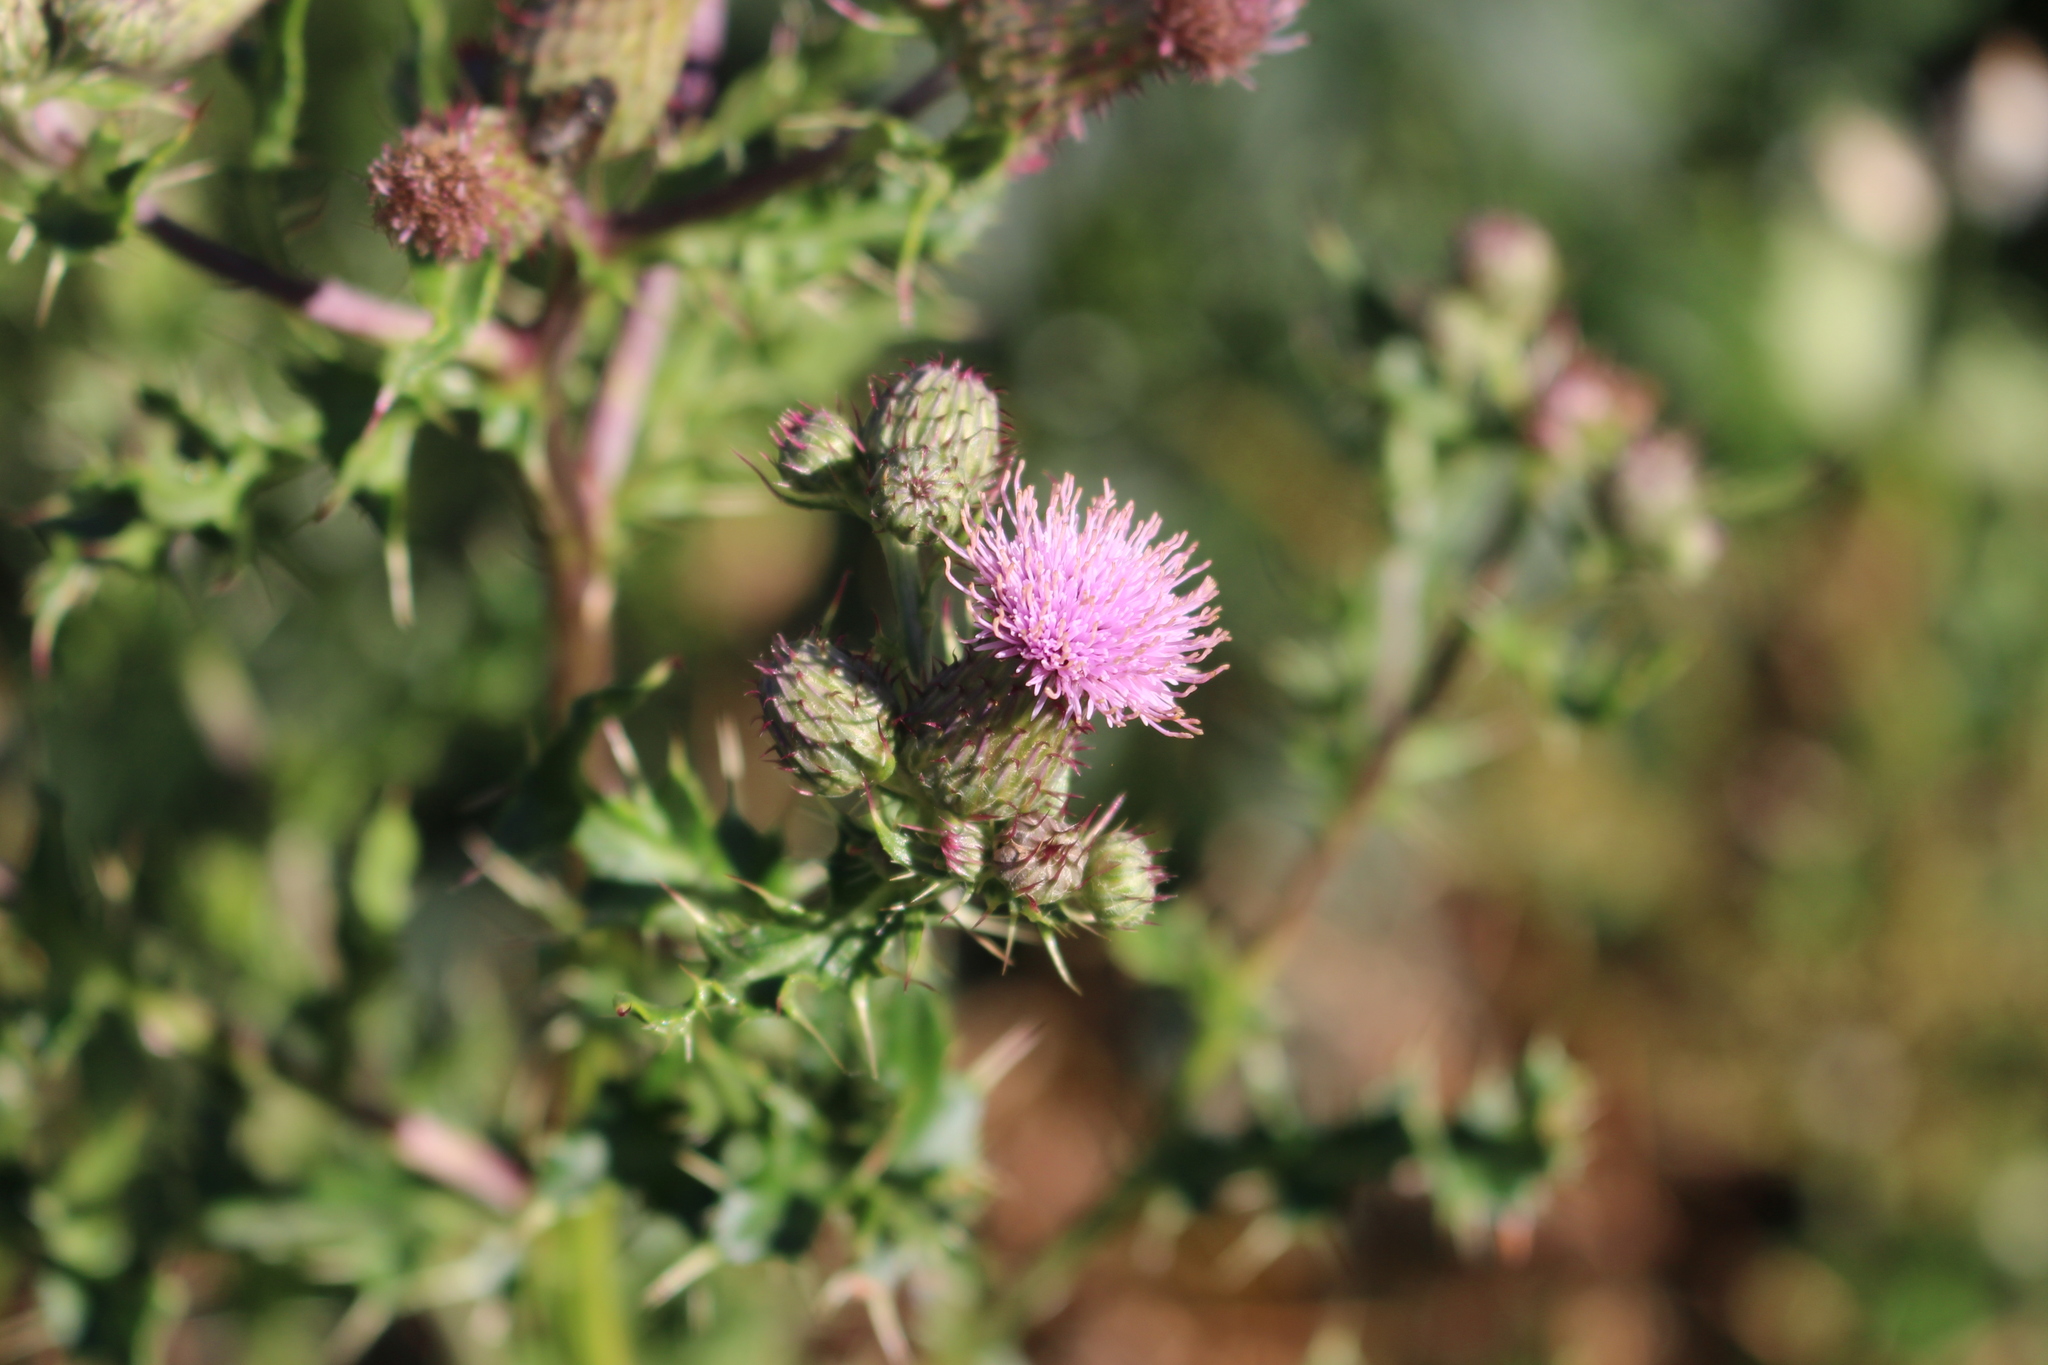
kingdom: Plantae
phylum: Tracheophyta
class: Magnoliopsida
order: Asterales
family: Asteraceae
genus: Cirsium
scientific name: Cirsium arvense
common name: Creeping thistle
